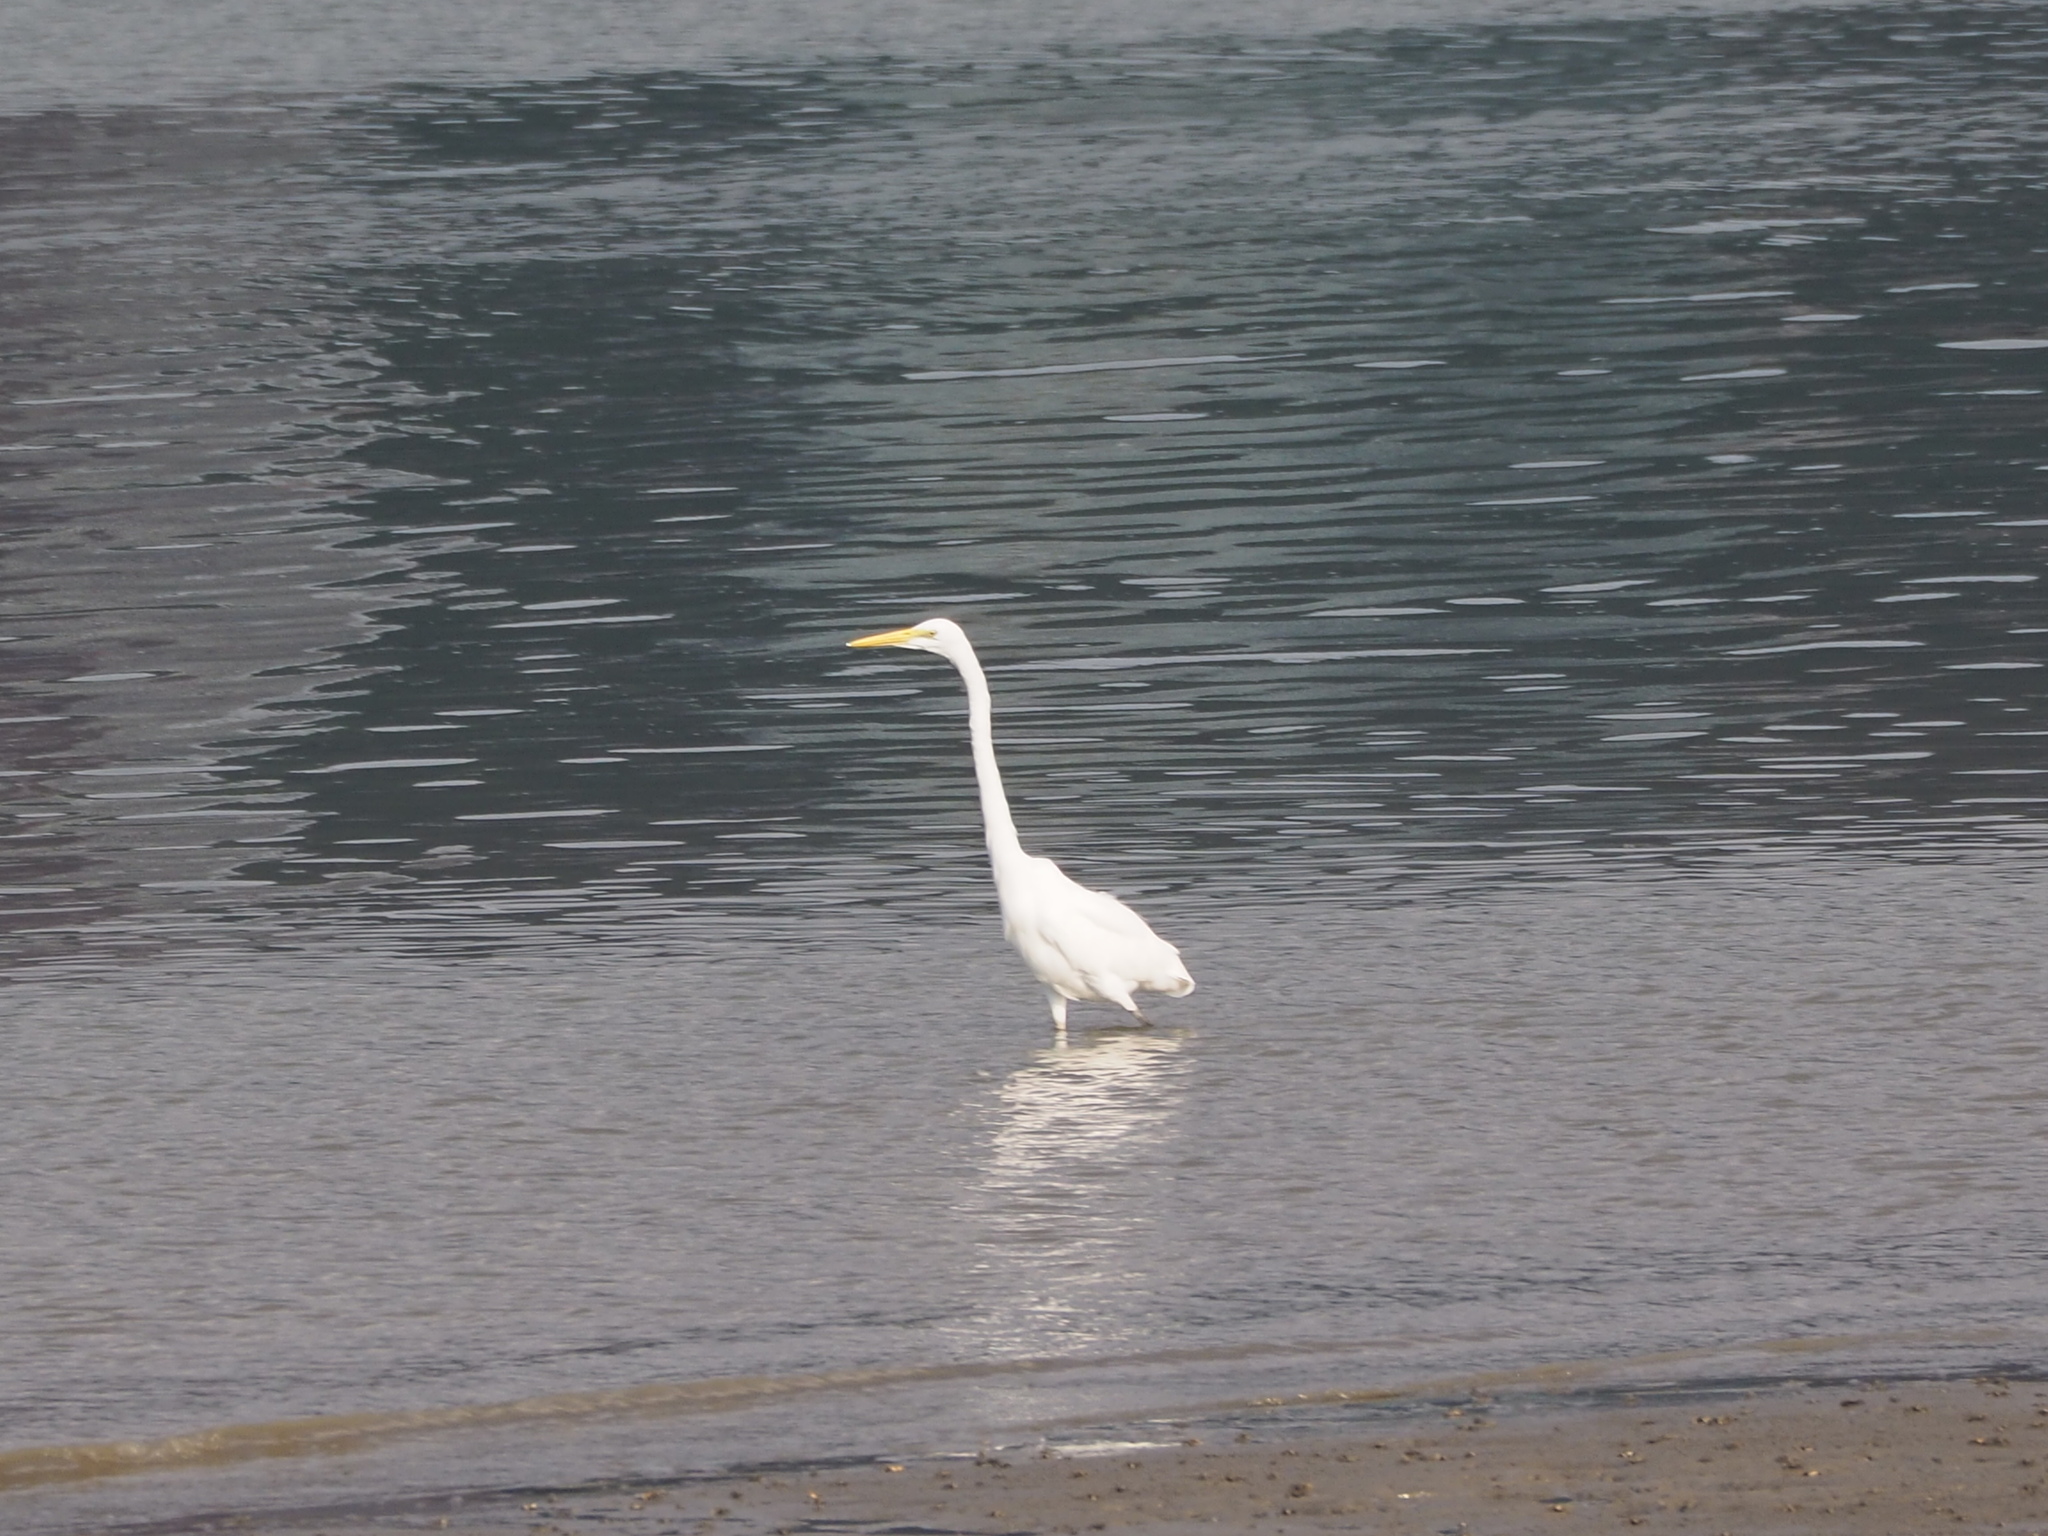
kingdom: Animalia
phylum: Chordata
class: Aves
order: Pelecaniformes
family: Ardeidae
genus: Ardea
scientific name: Ardea alba
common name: Great egret
